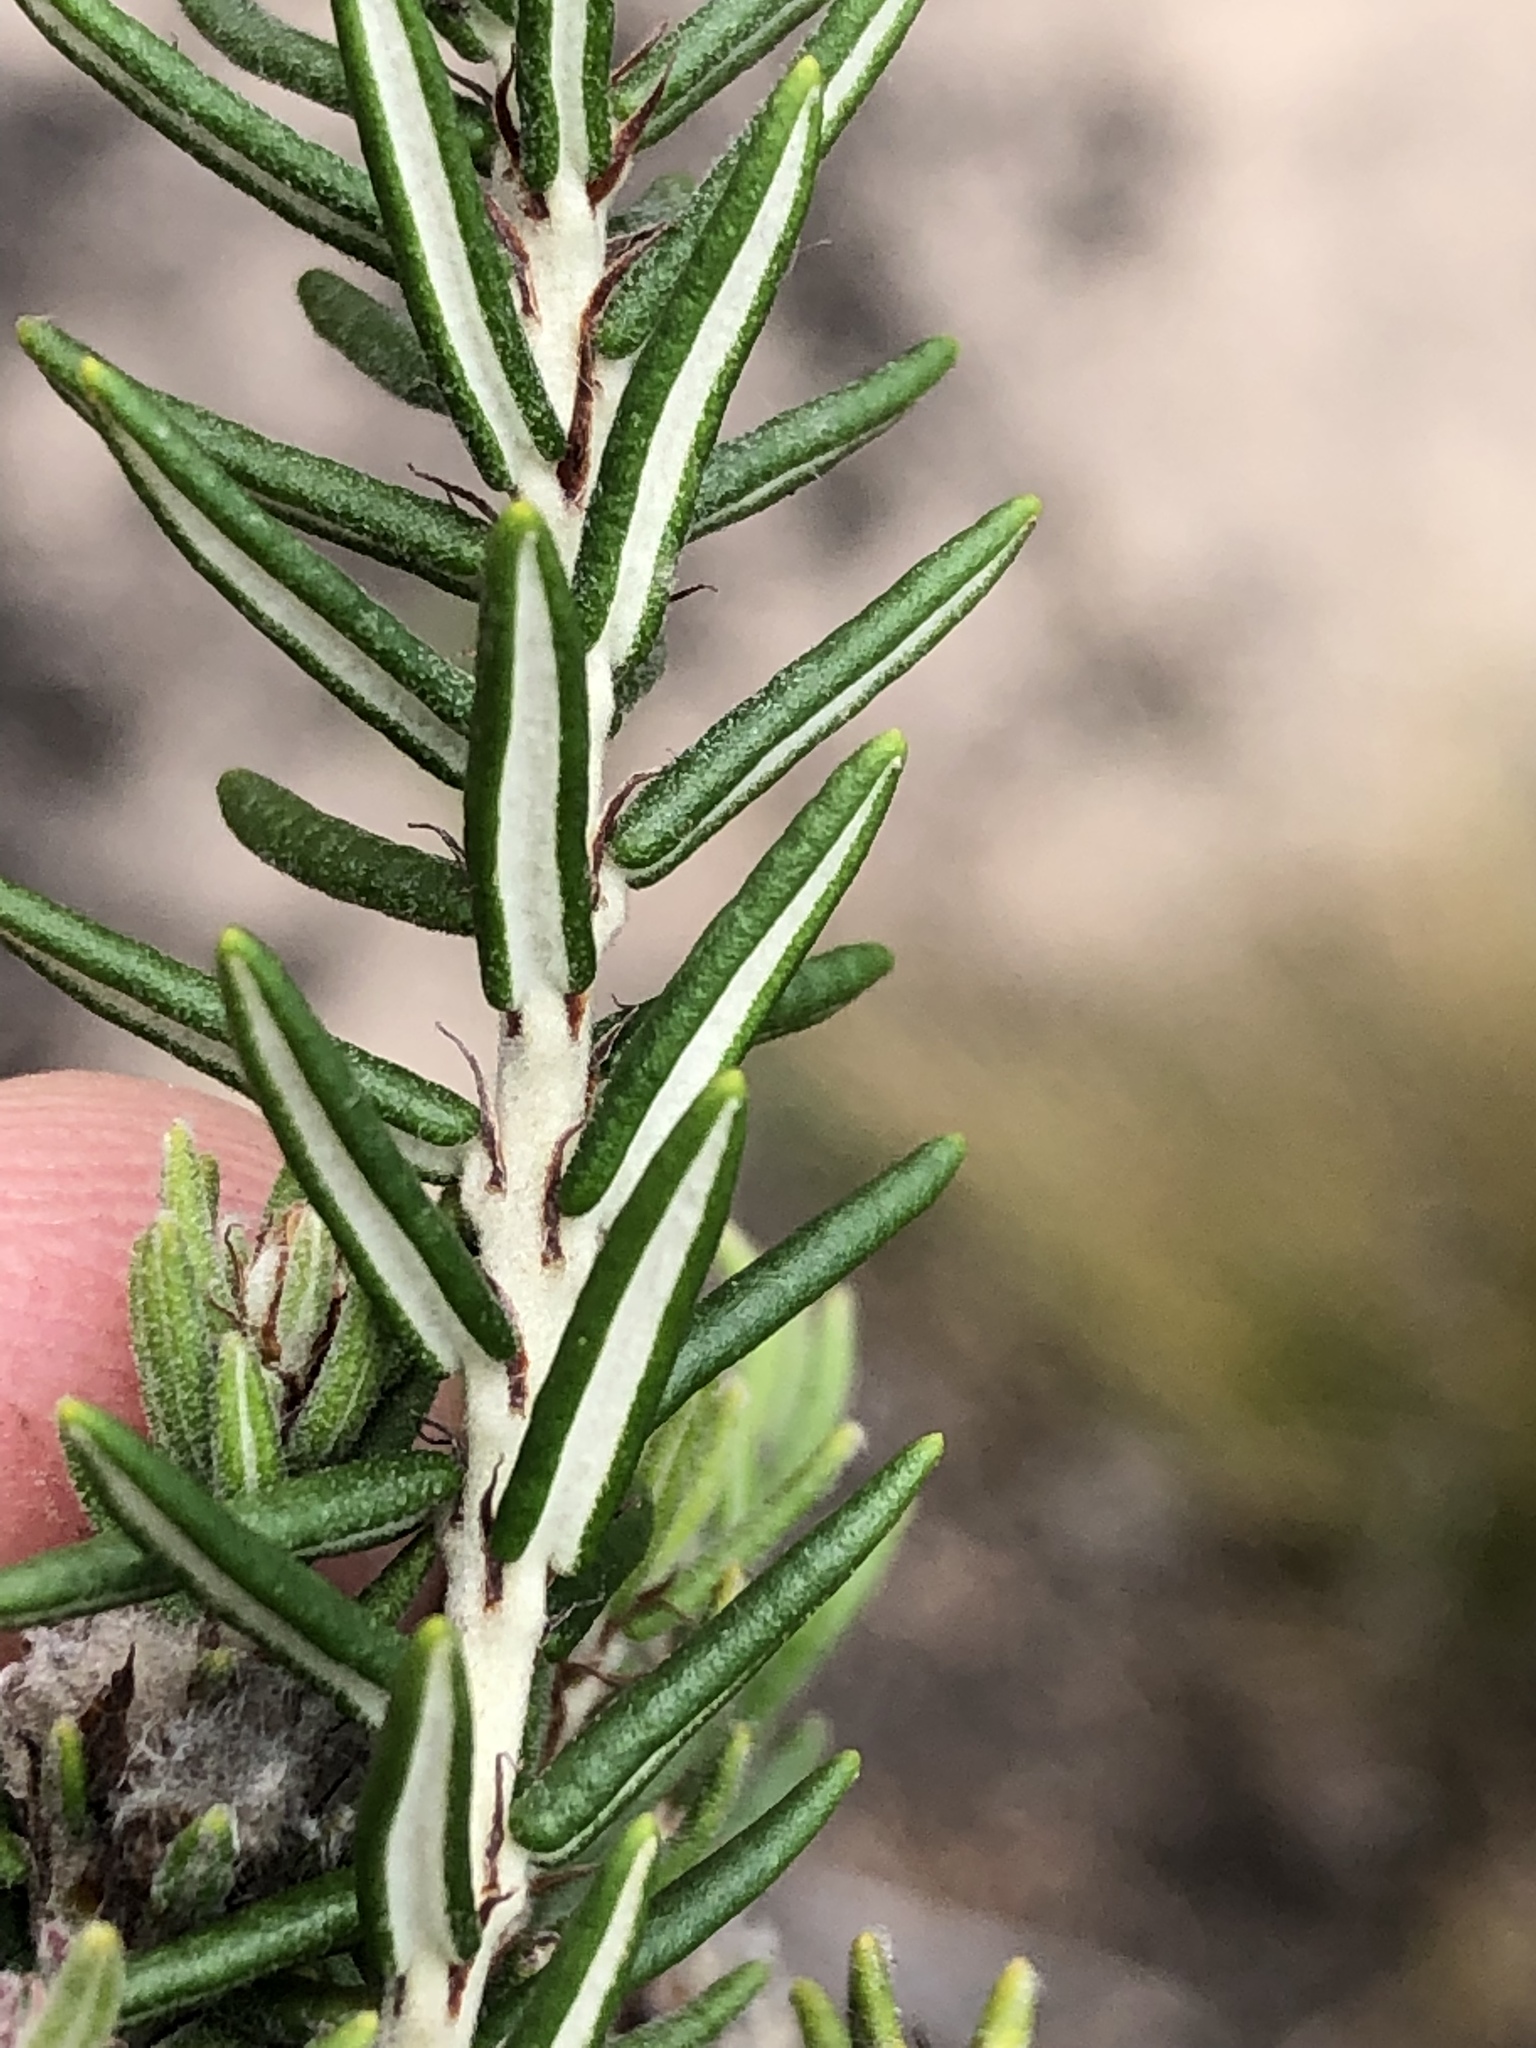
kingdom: Plantae
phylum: Tracheophyta
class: Magnoliopsida
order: Rosales
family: Rhamnaceae
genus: Trichocephalus
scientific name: Trichocephalus stipularis
